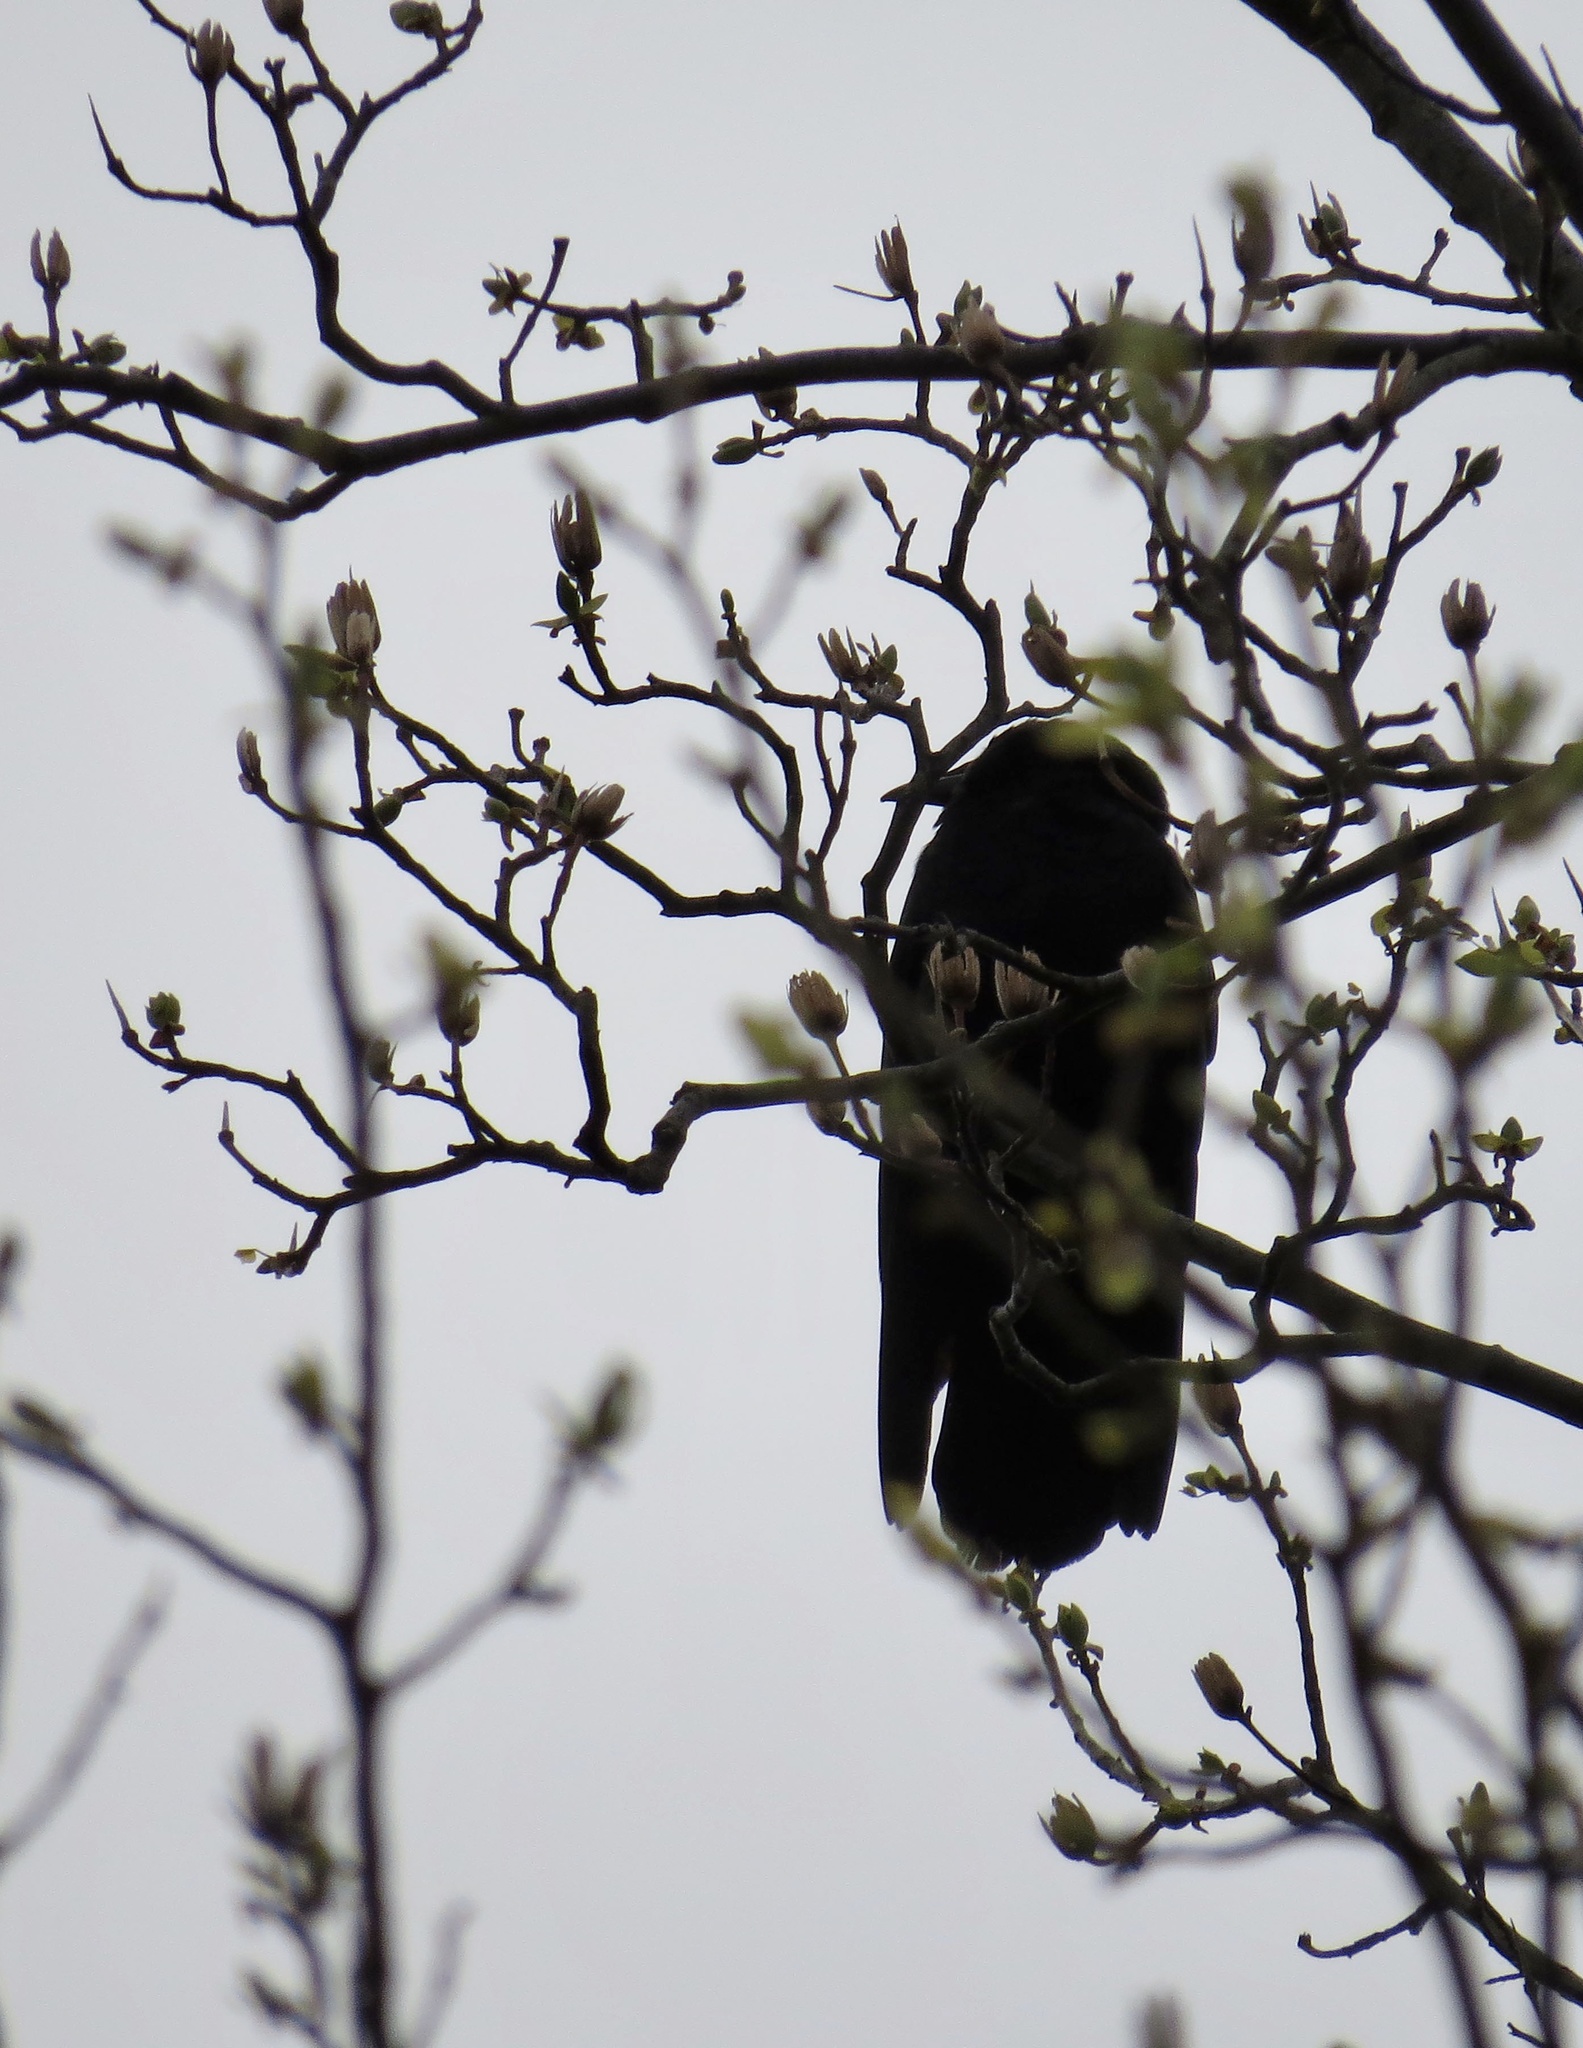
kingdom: Animalia
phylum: Chordata
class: Aves
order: Passeriformes
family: Corvidae
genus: Corvus
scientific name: Corvus brachyrhynchos
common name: American crow
